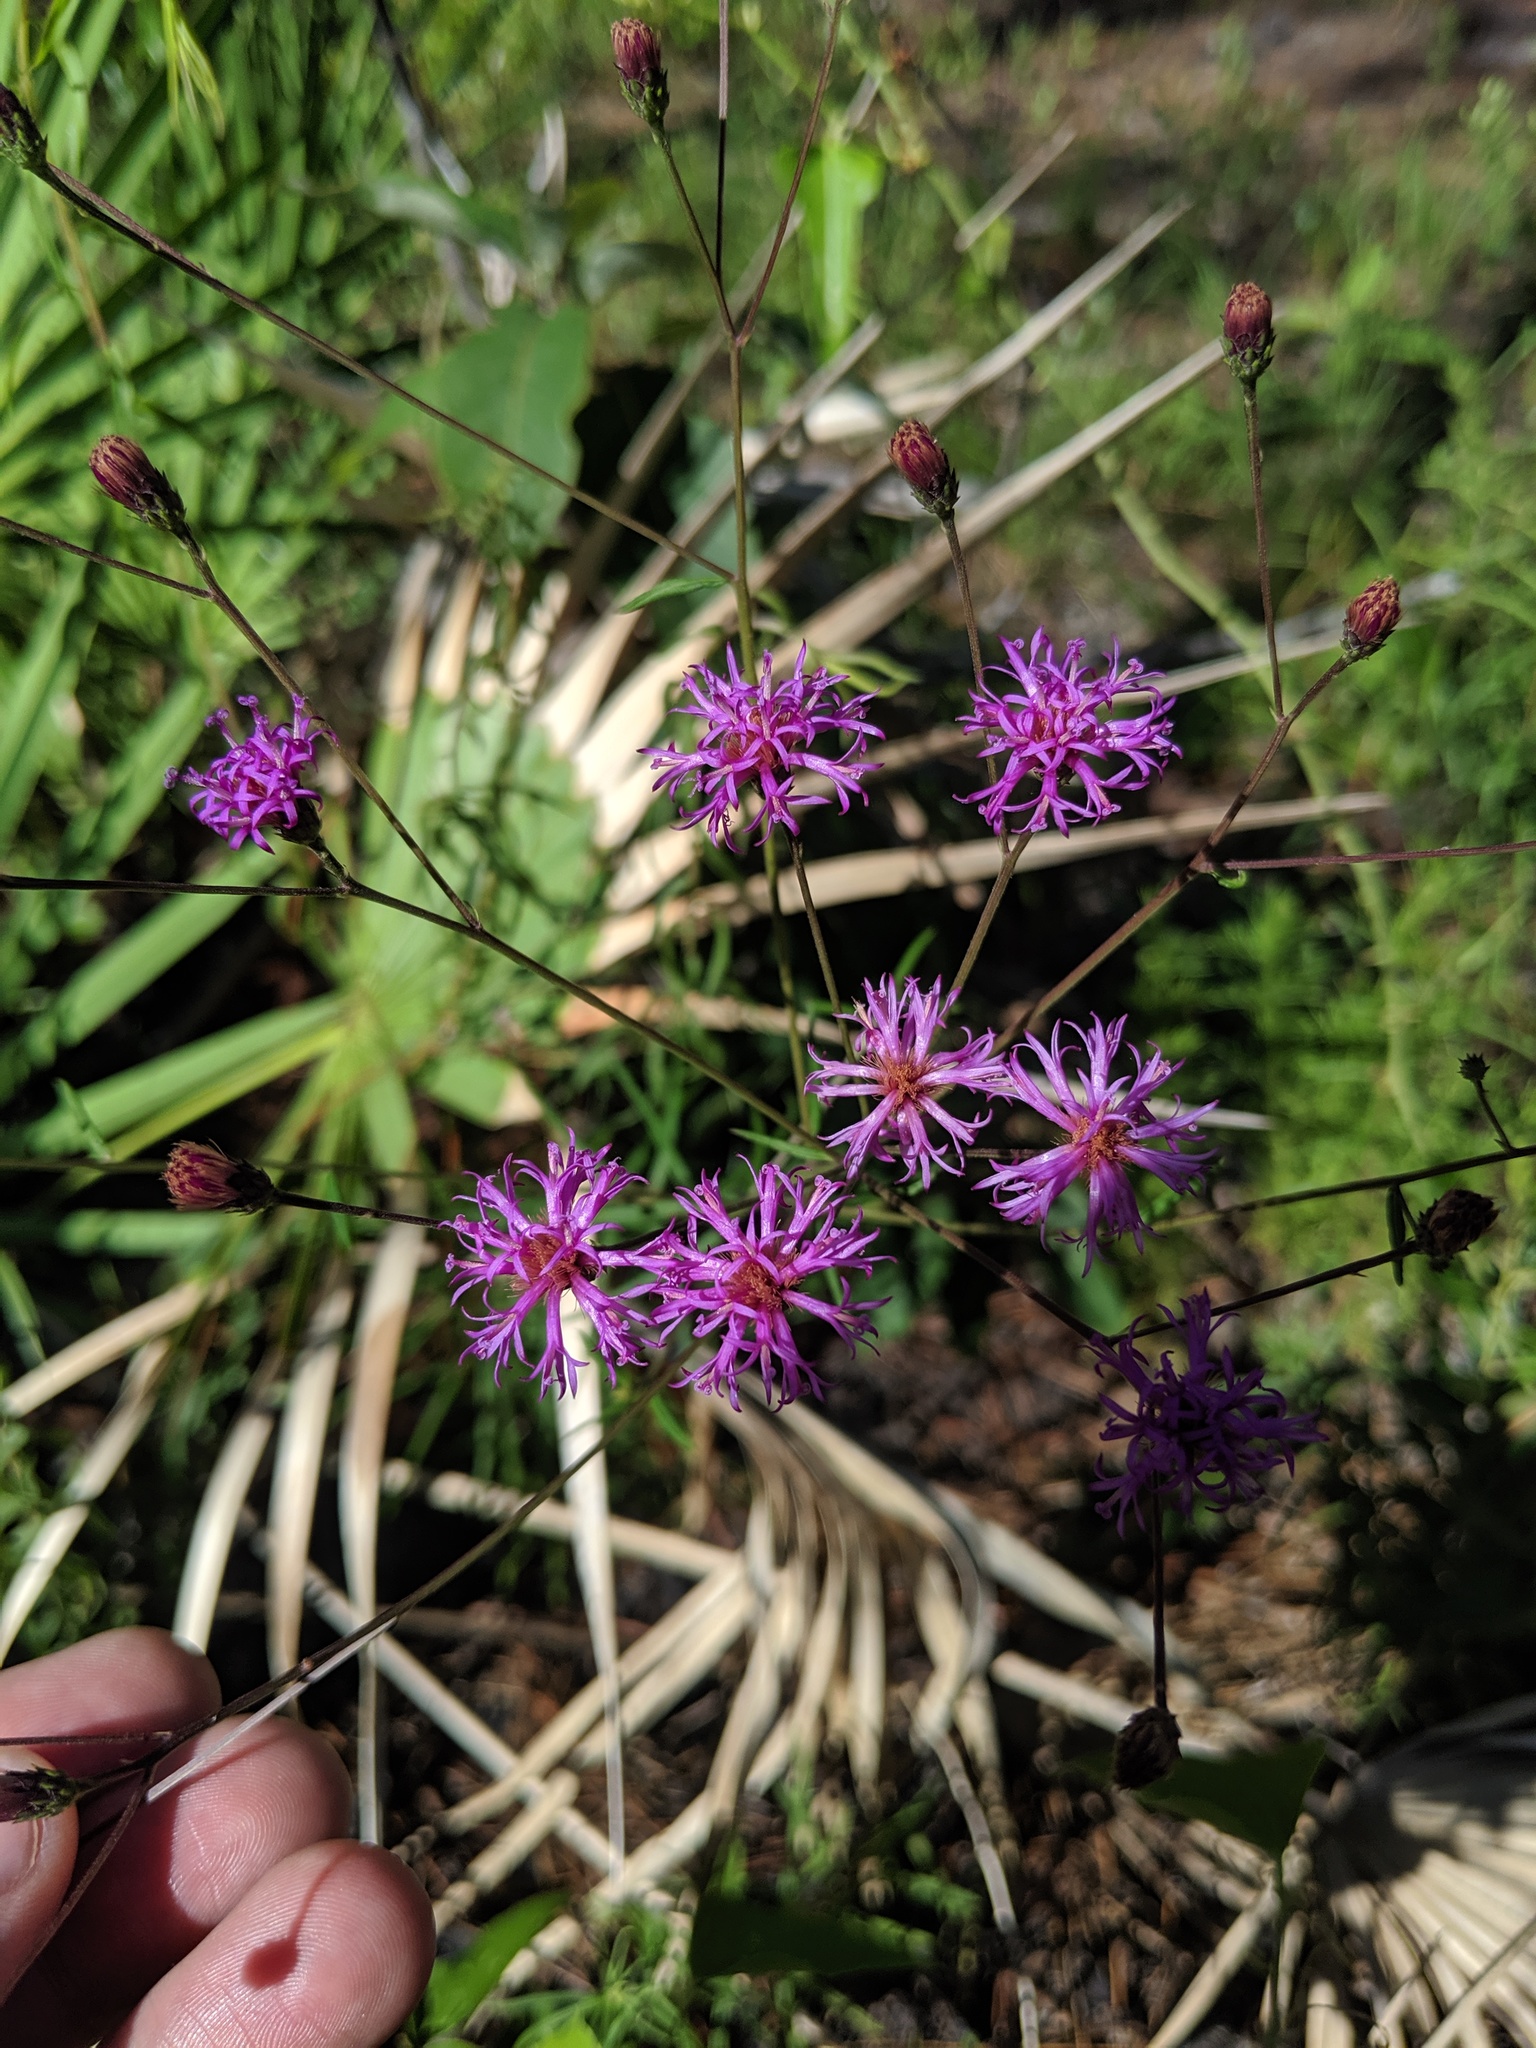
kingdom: Plantae
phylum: Tracheophyta
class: Magnoliopsida
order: Asterales
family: Asteraceae
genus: Vernonia
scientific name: Vernonia angustifolia
